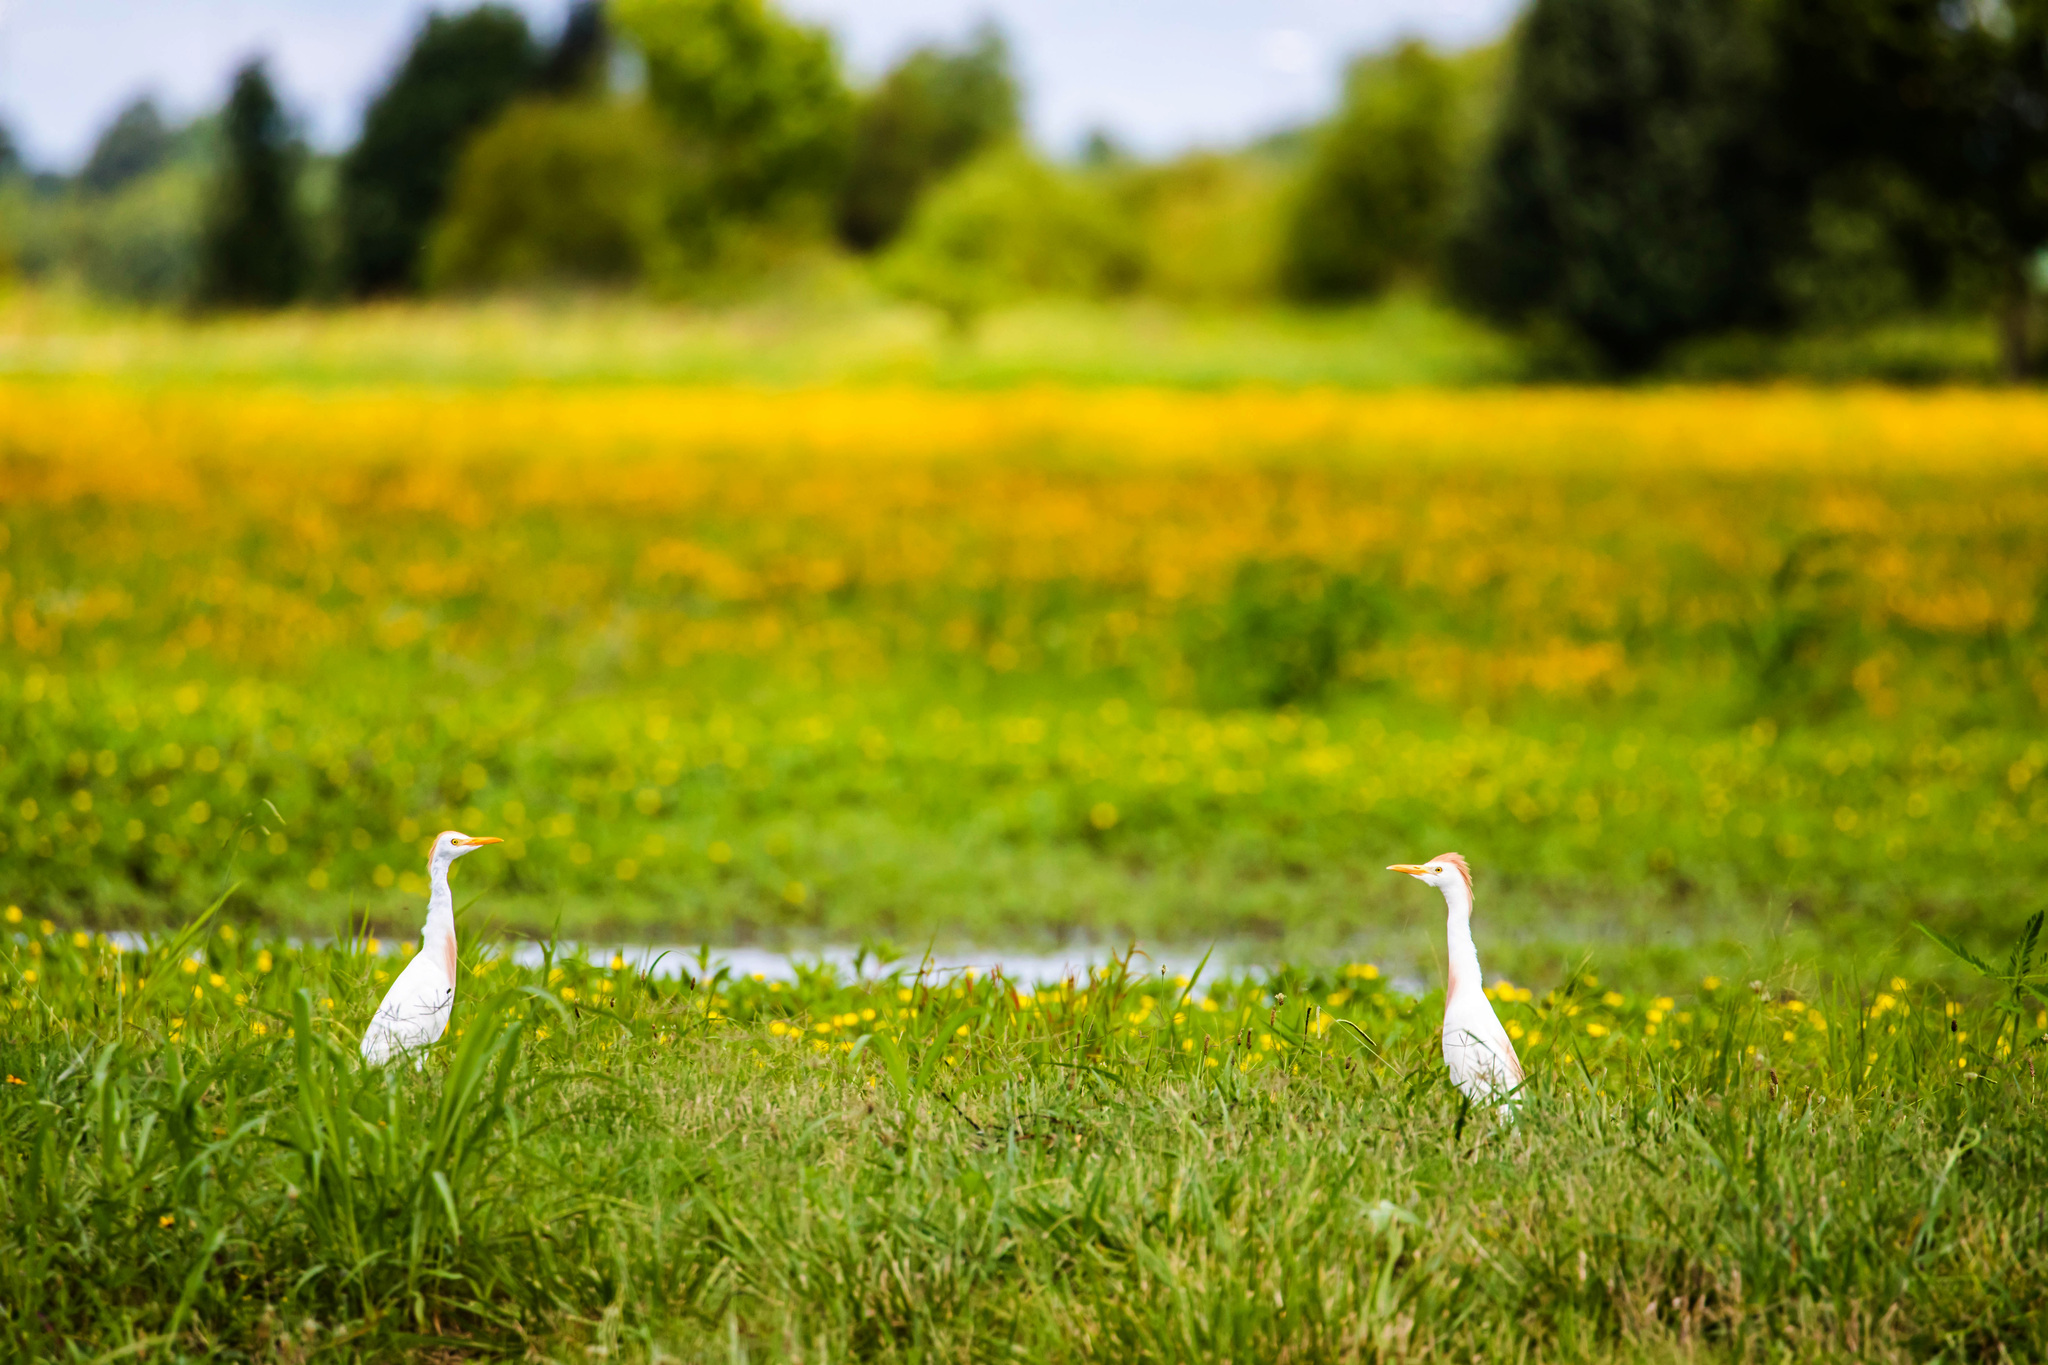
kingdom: Animalia
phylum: Chordata
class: Aves
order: Pelecaniformes
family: Ardeidae
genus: Bubulcus
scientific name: Bubulcus ibis
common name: Cattle egret
